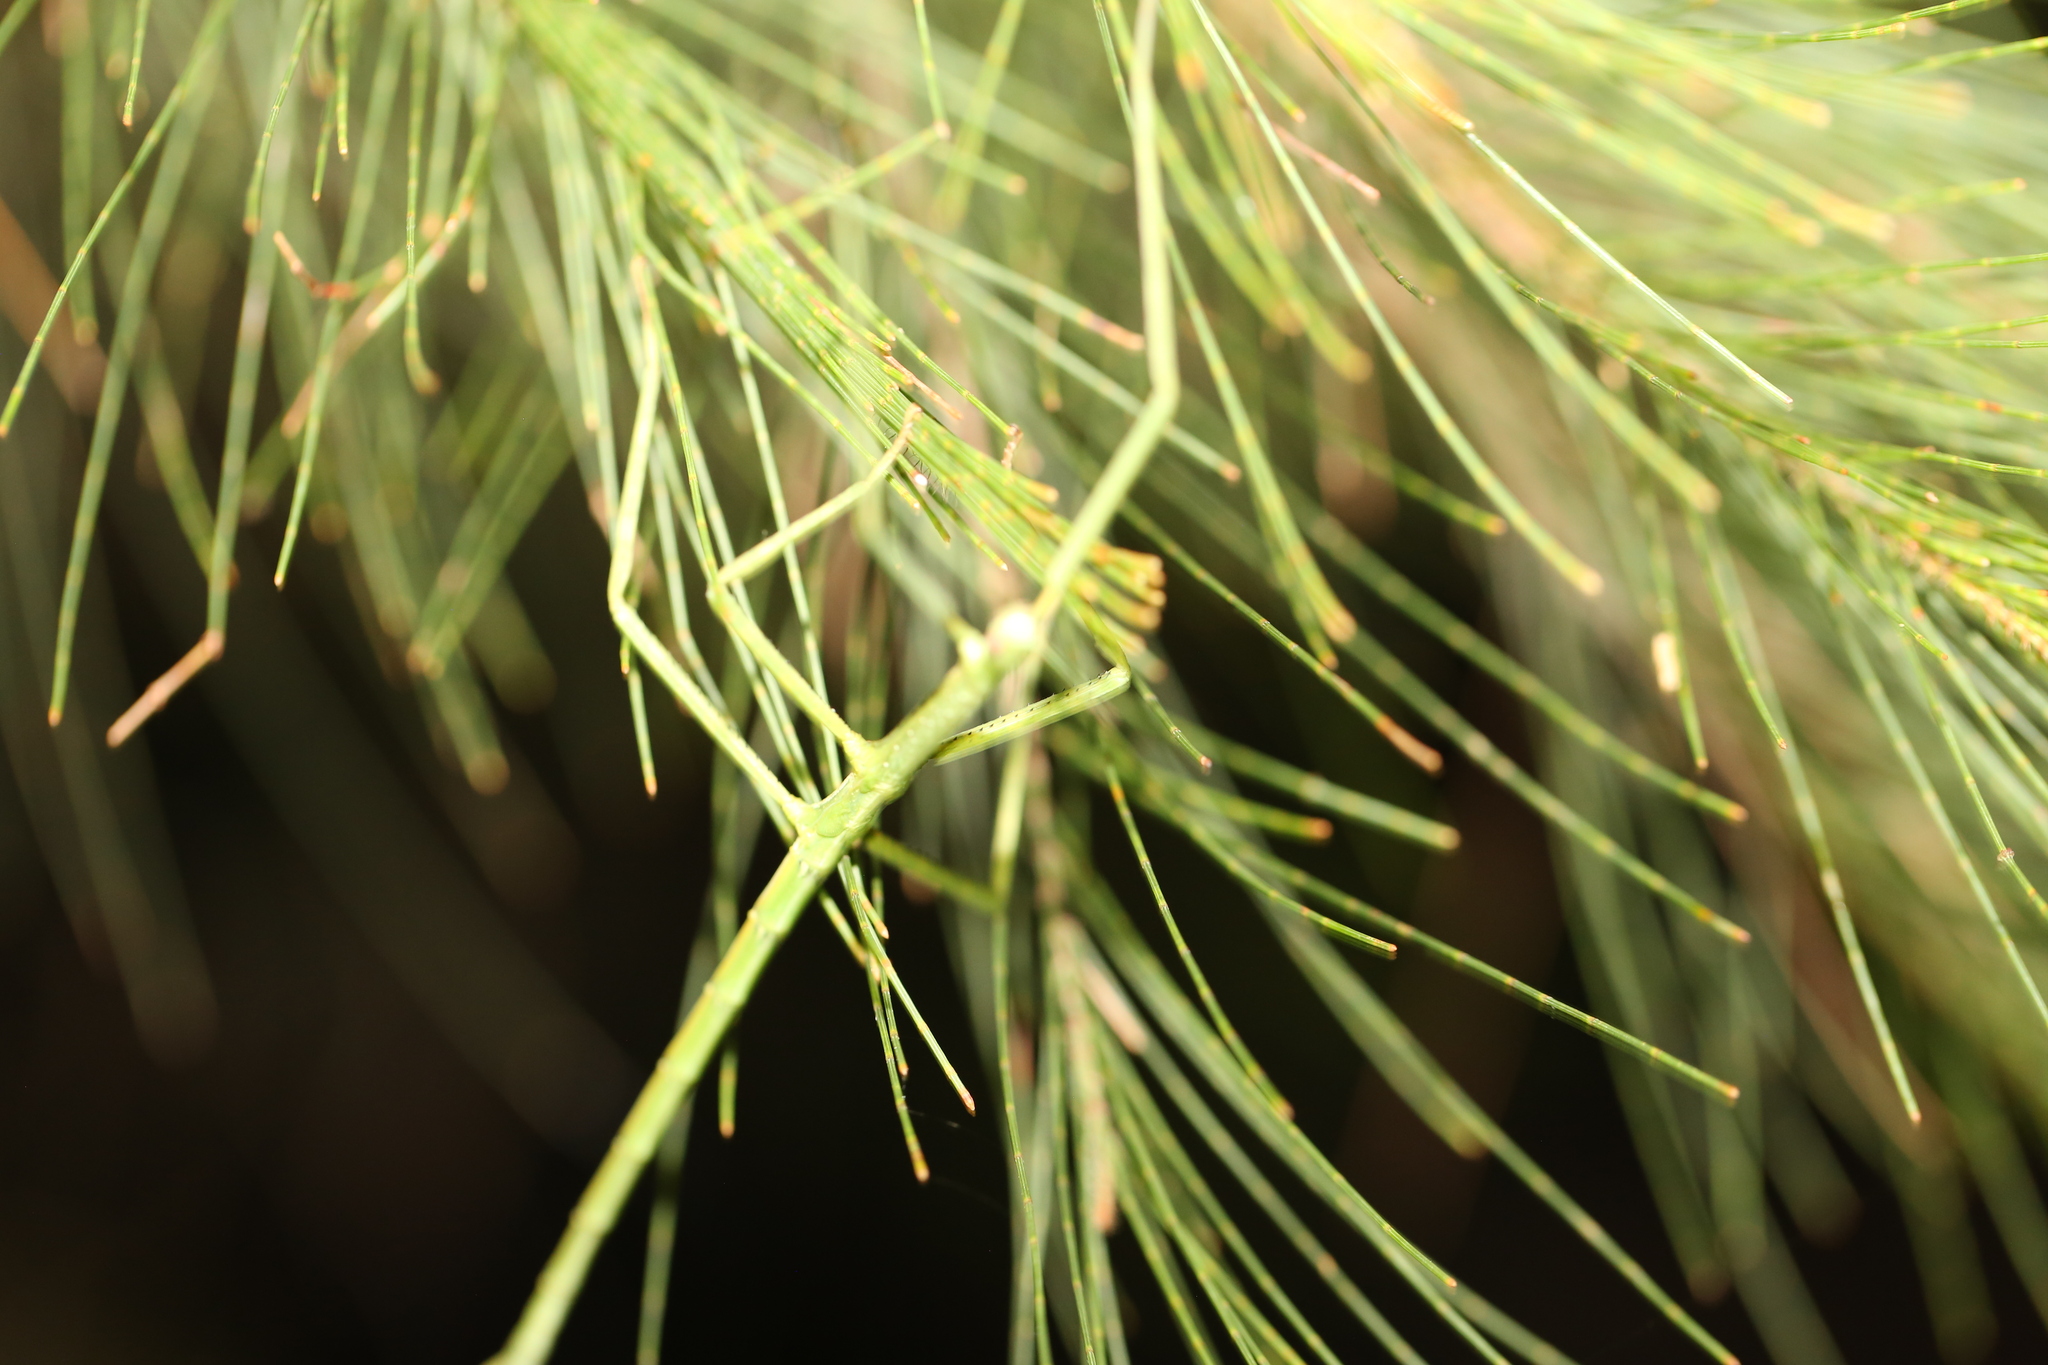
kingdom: Animalia
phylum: Arthropoda
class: Insecta
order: Phasmida
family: Phasmatidae
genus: Anchiale
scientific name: Anchiale austrotessulata
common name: Tessellated stick-insect
